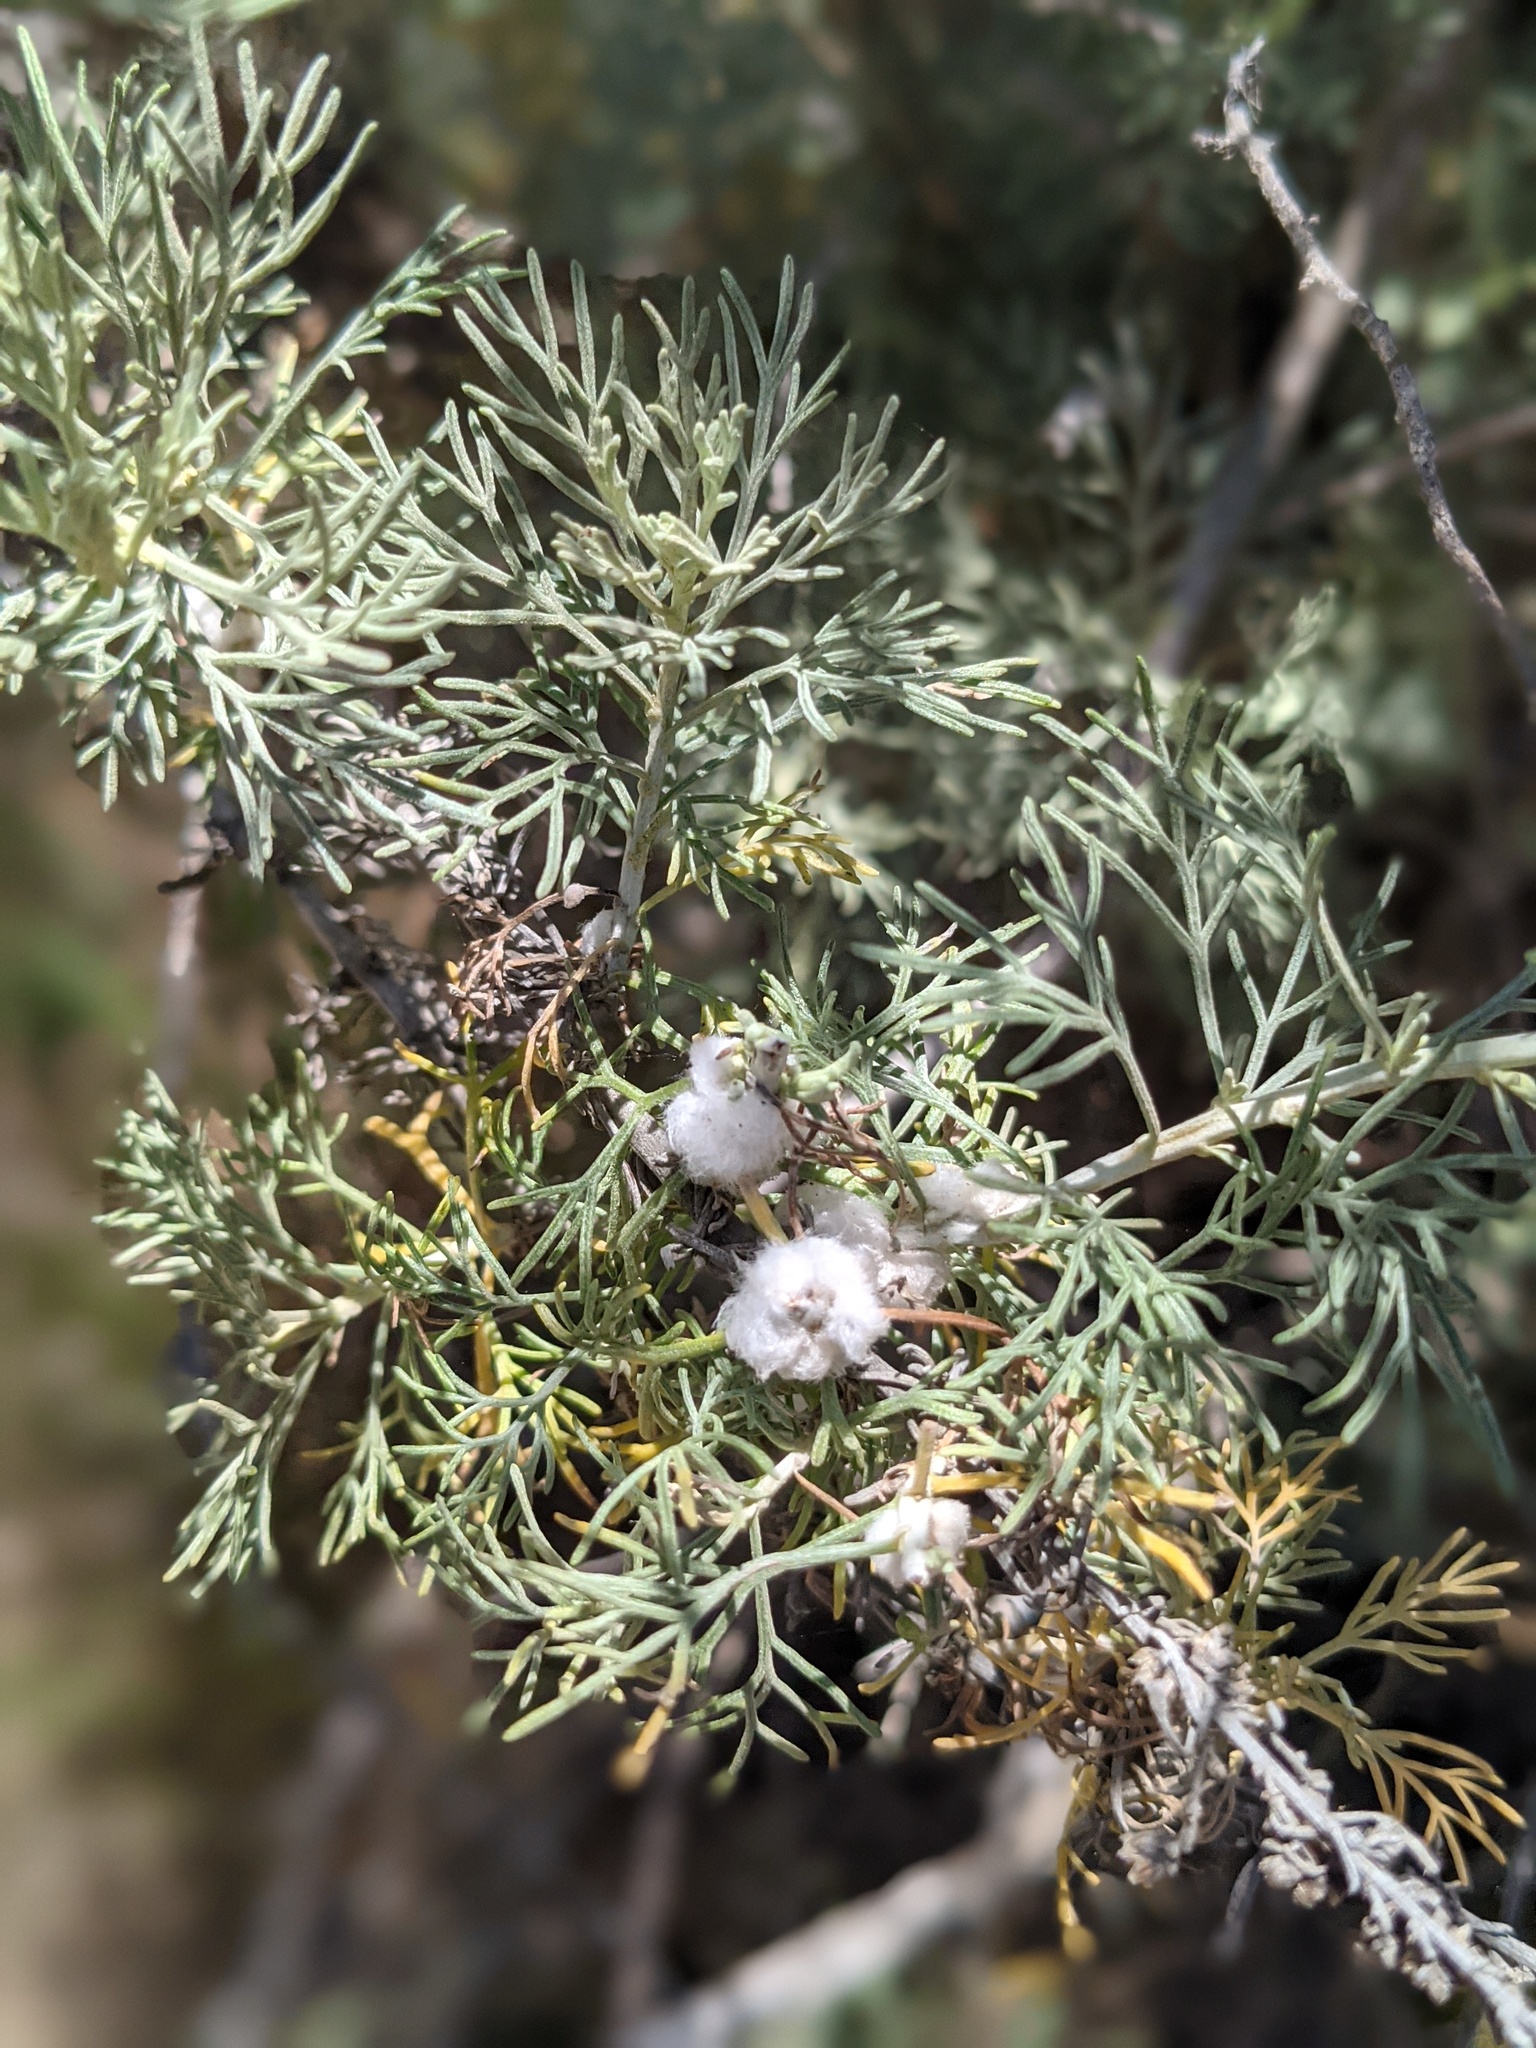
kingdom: Animalia
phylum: Arthropoda
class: Insecta
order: Diptera
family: Cecidomyiidae
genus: Rhopalomyia
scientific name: Rhopalomyia floccosa
